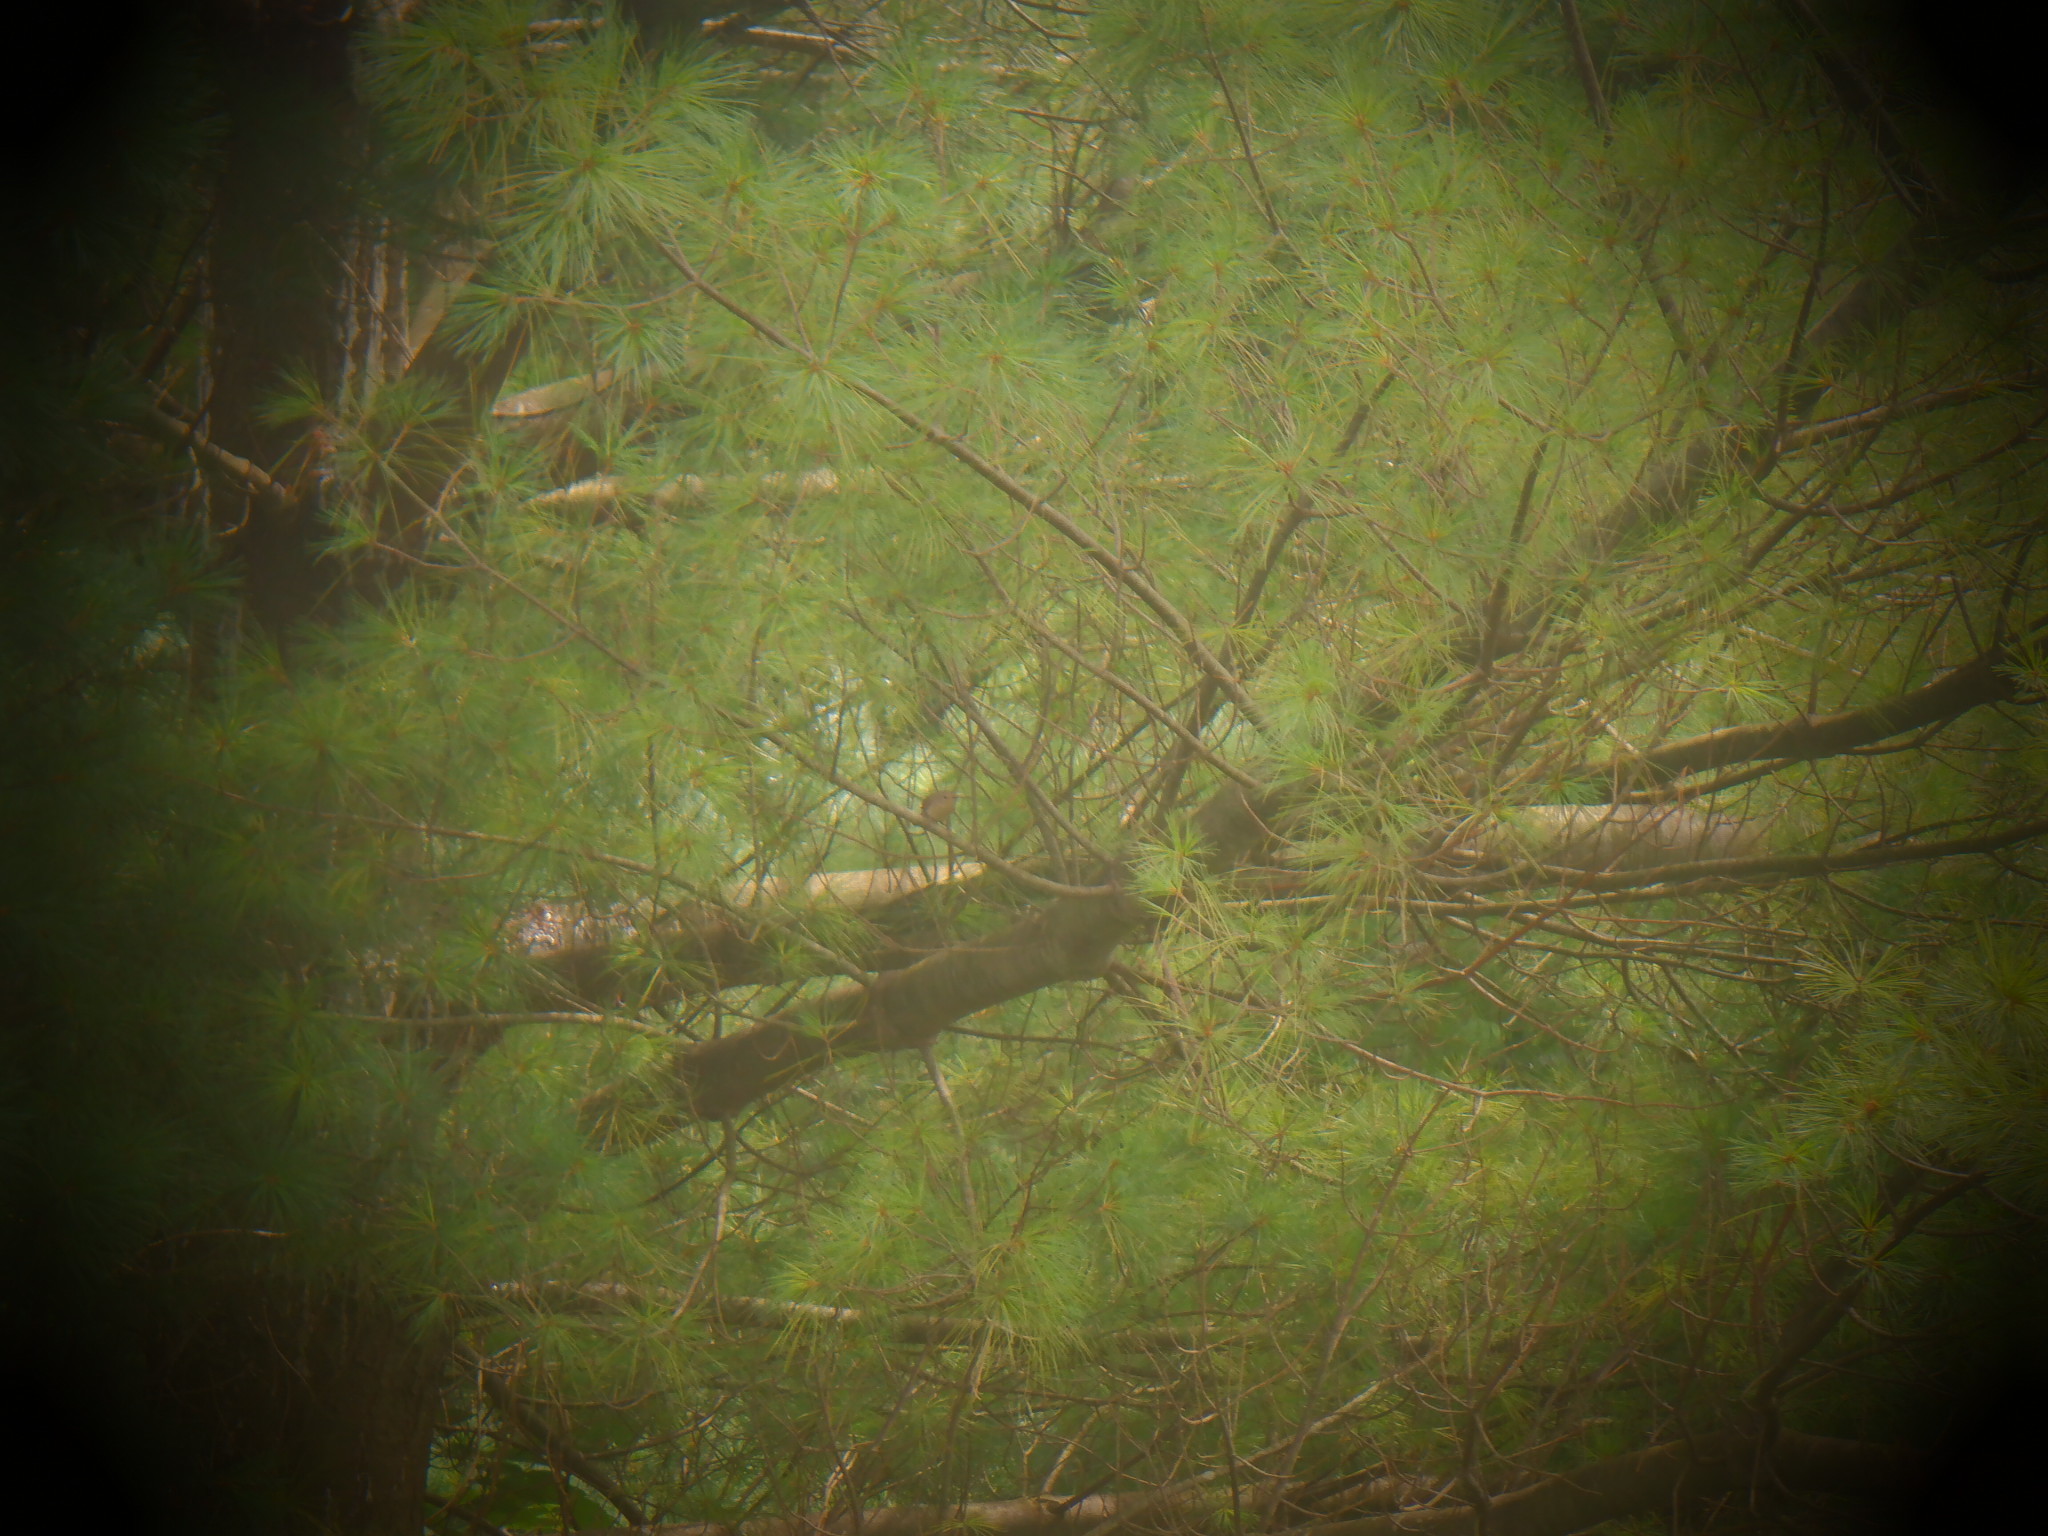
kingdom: Animalia
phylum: Chordata
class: Aves
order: Passeriformes
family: Troglodytidae
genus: Troglodytes
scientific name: Troglodytes aedon
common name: House wren
